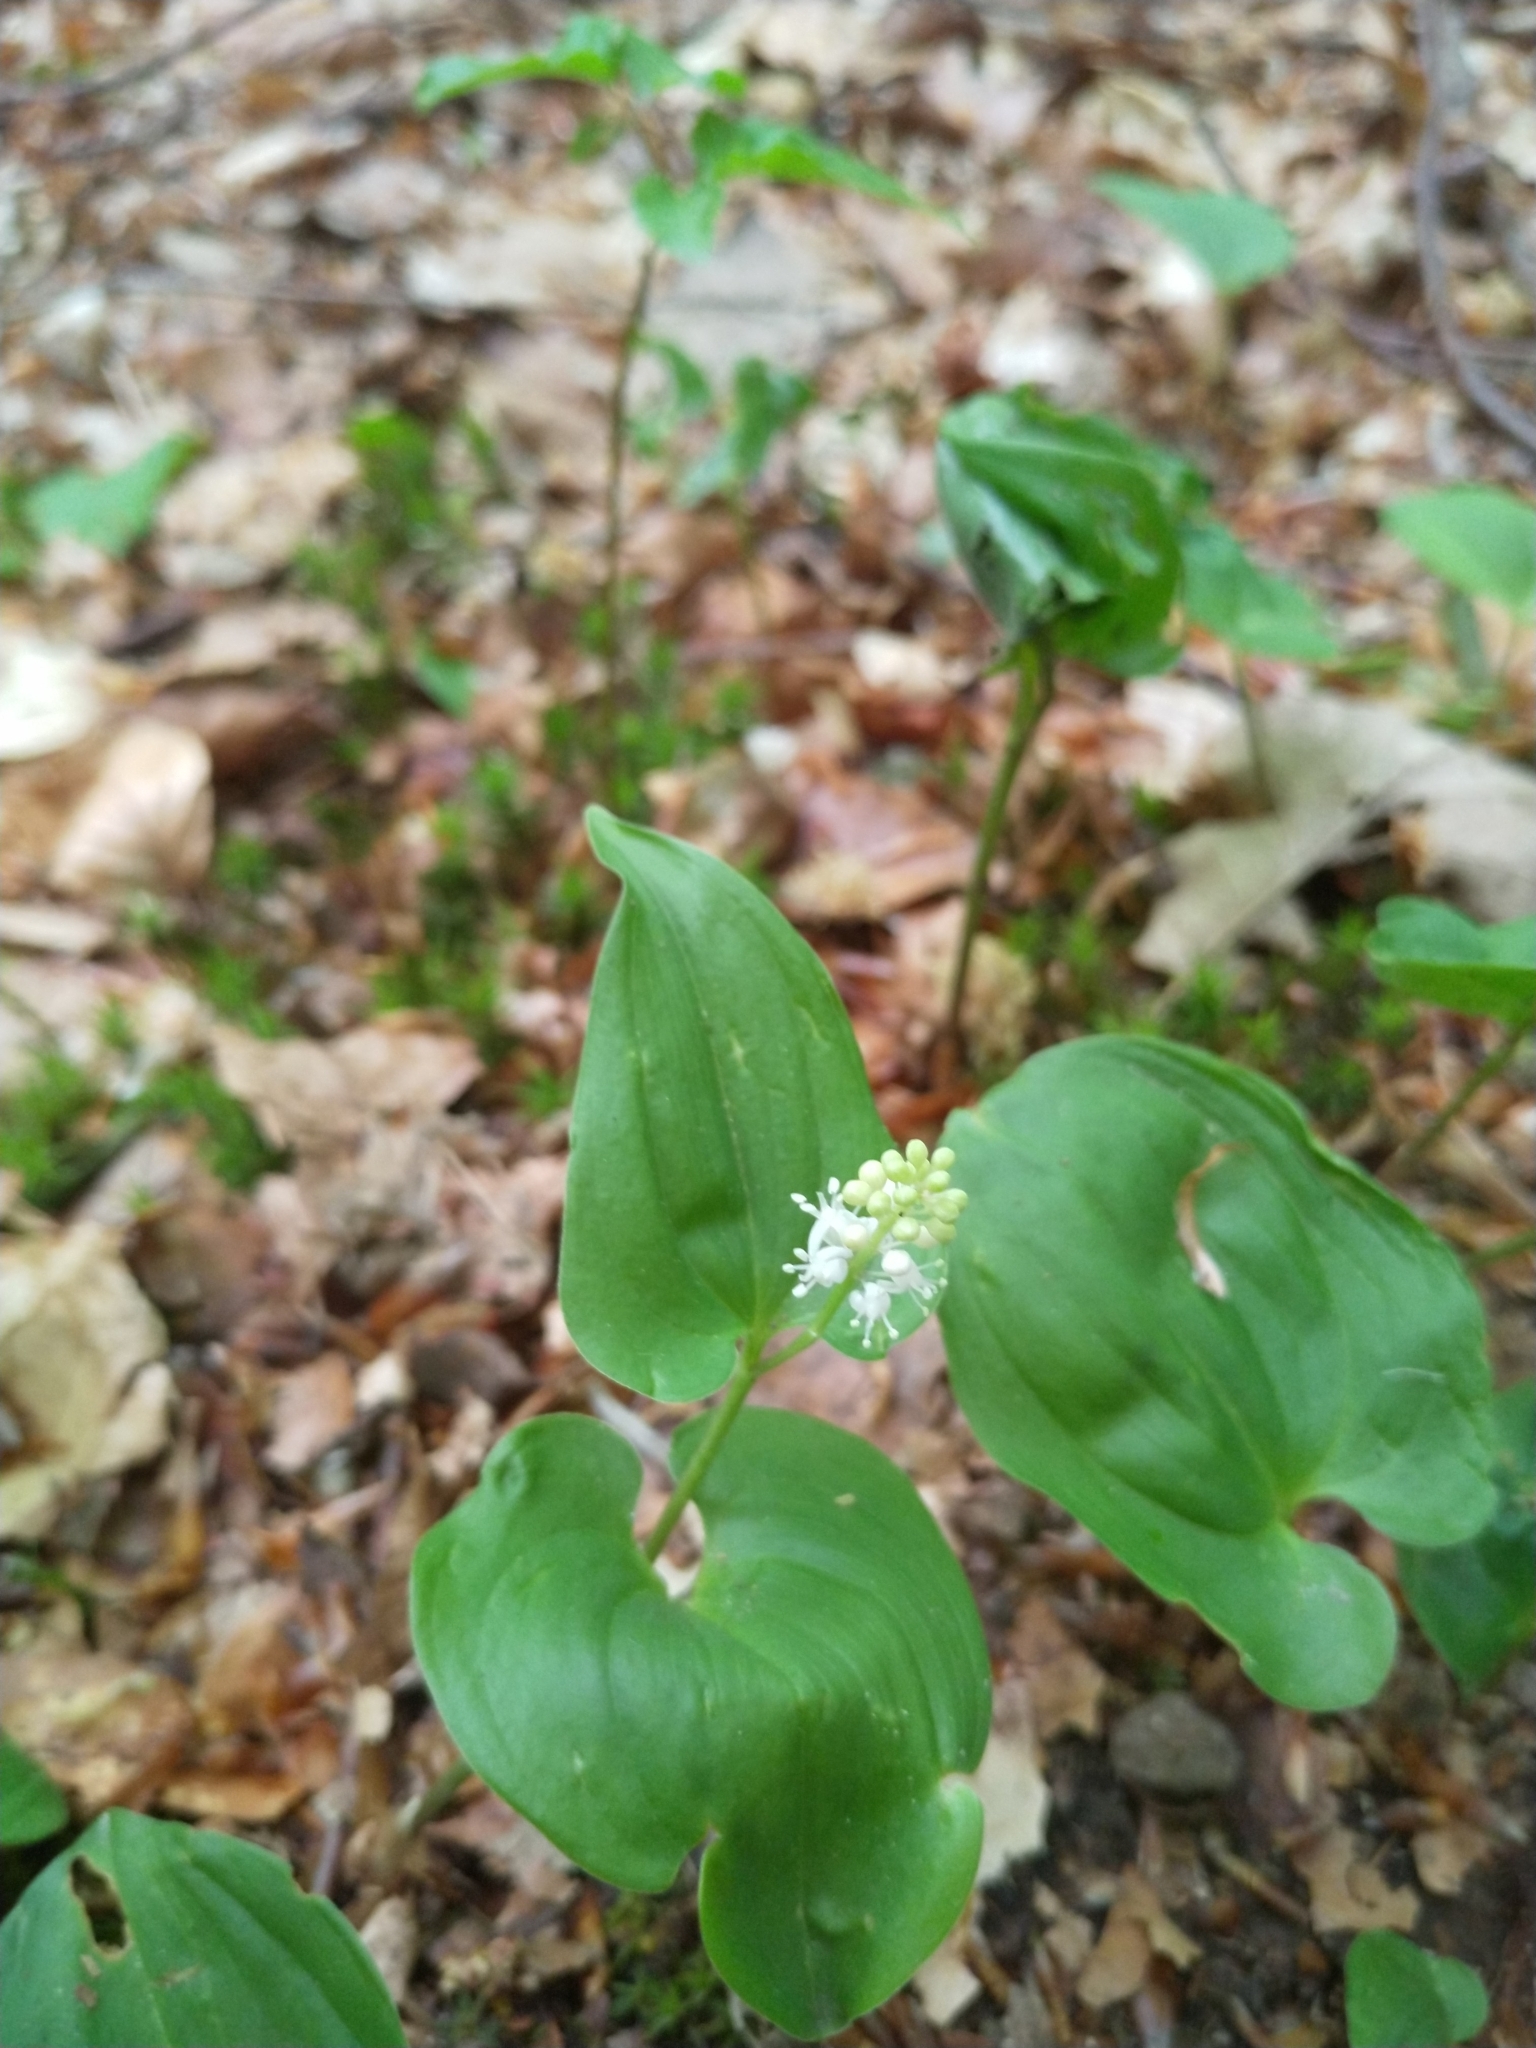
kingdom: Plantae
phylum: Tracheophyta
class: Liliopsida
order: Asparagales
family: Asparagaceae
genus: Maianthemum
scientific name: Maianthemum bifolium
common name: May lily
